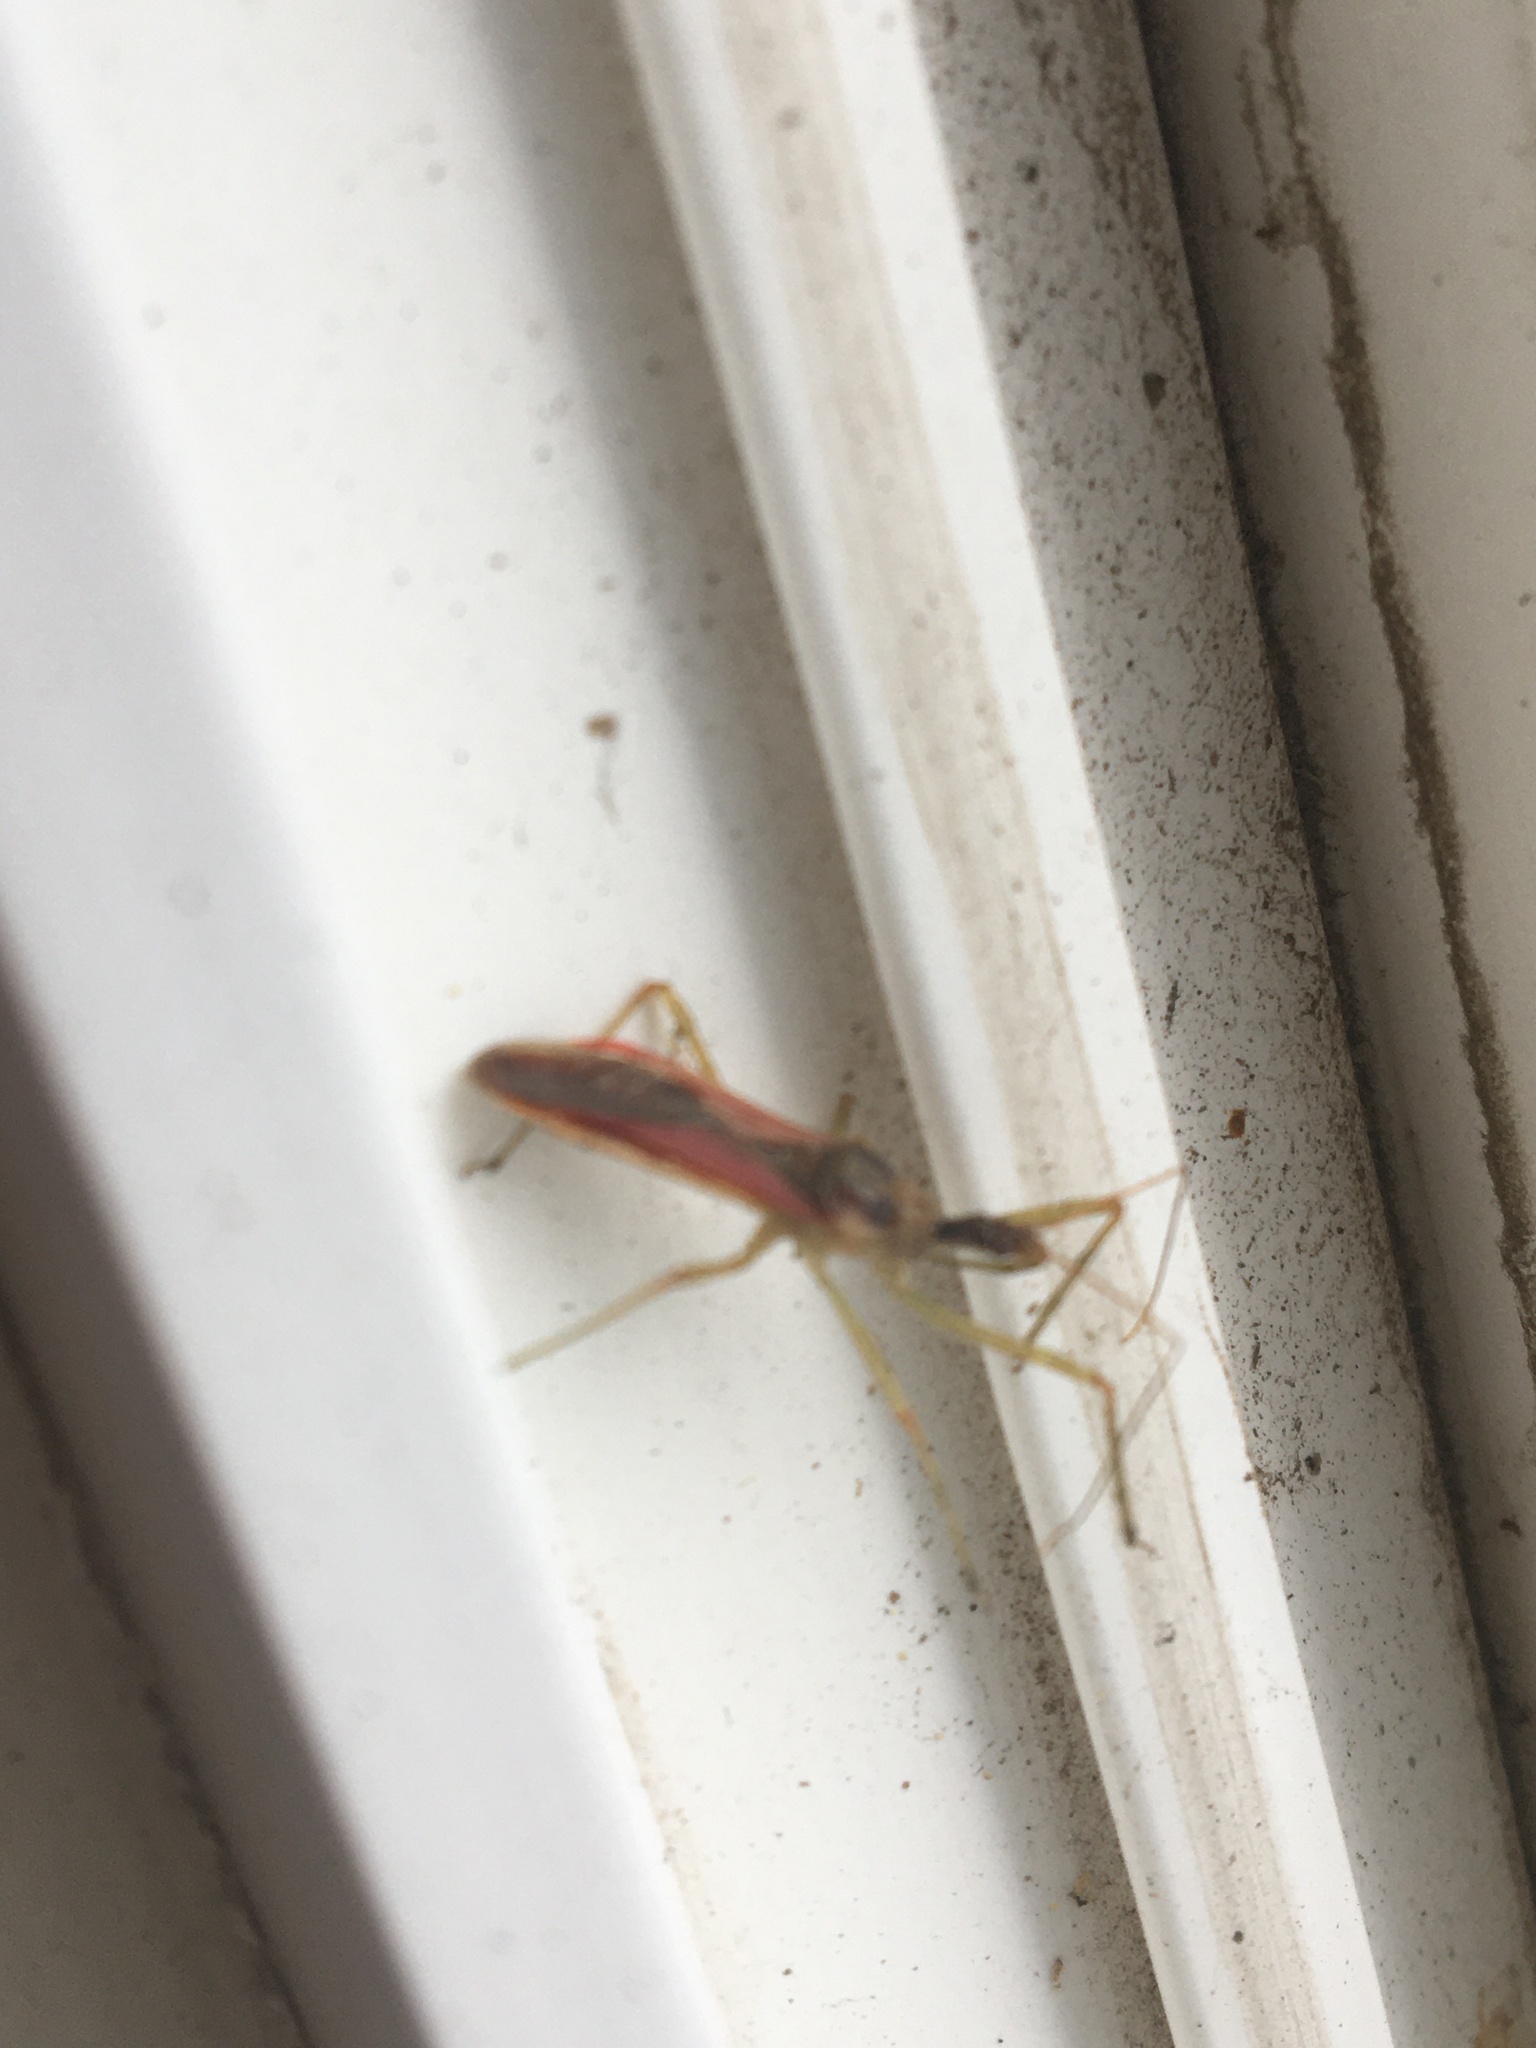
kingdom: Animalia
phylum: Arthropoda
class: Insecta
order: Hemiptera
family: Reduviidae
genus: Zelus
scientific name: Zelus renardii
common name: Assassin bug
